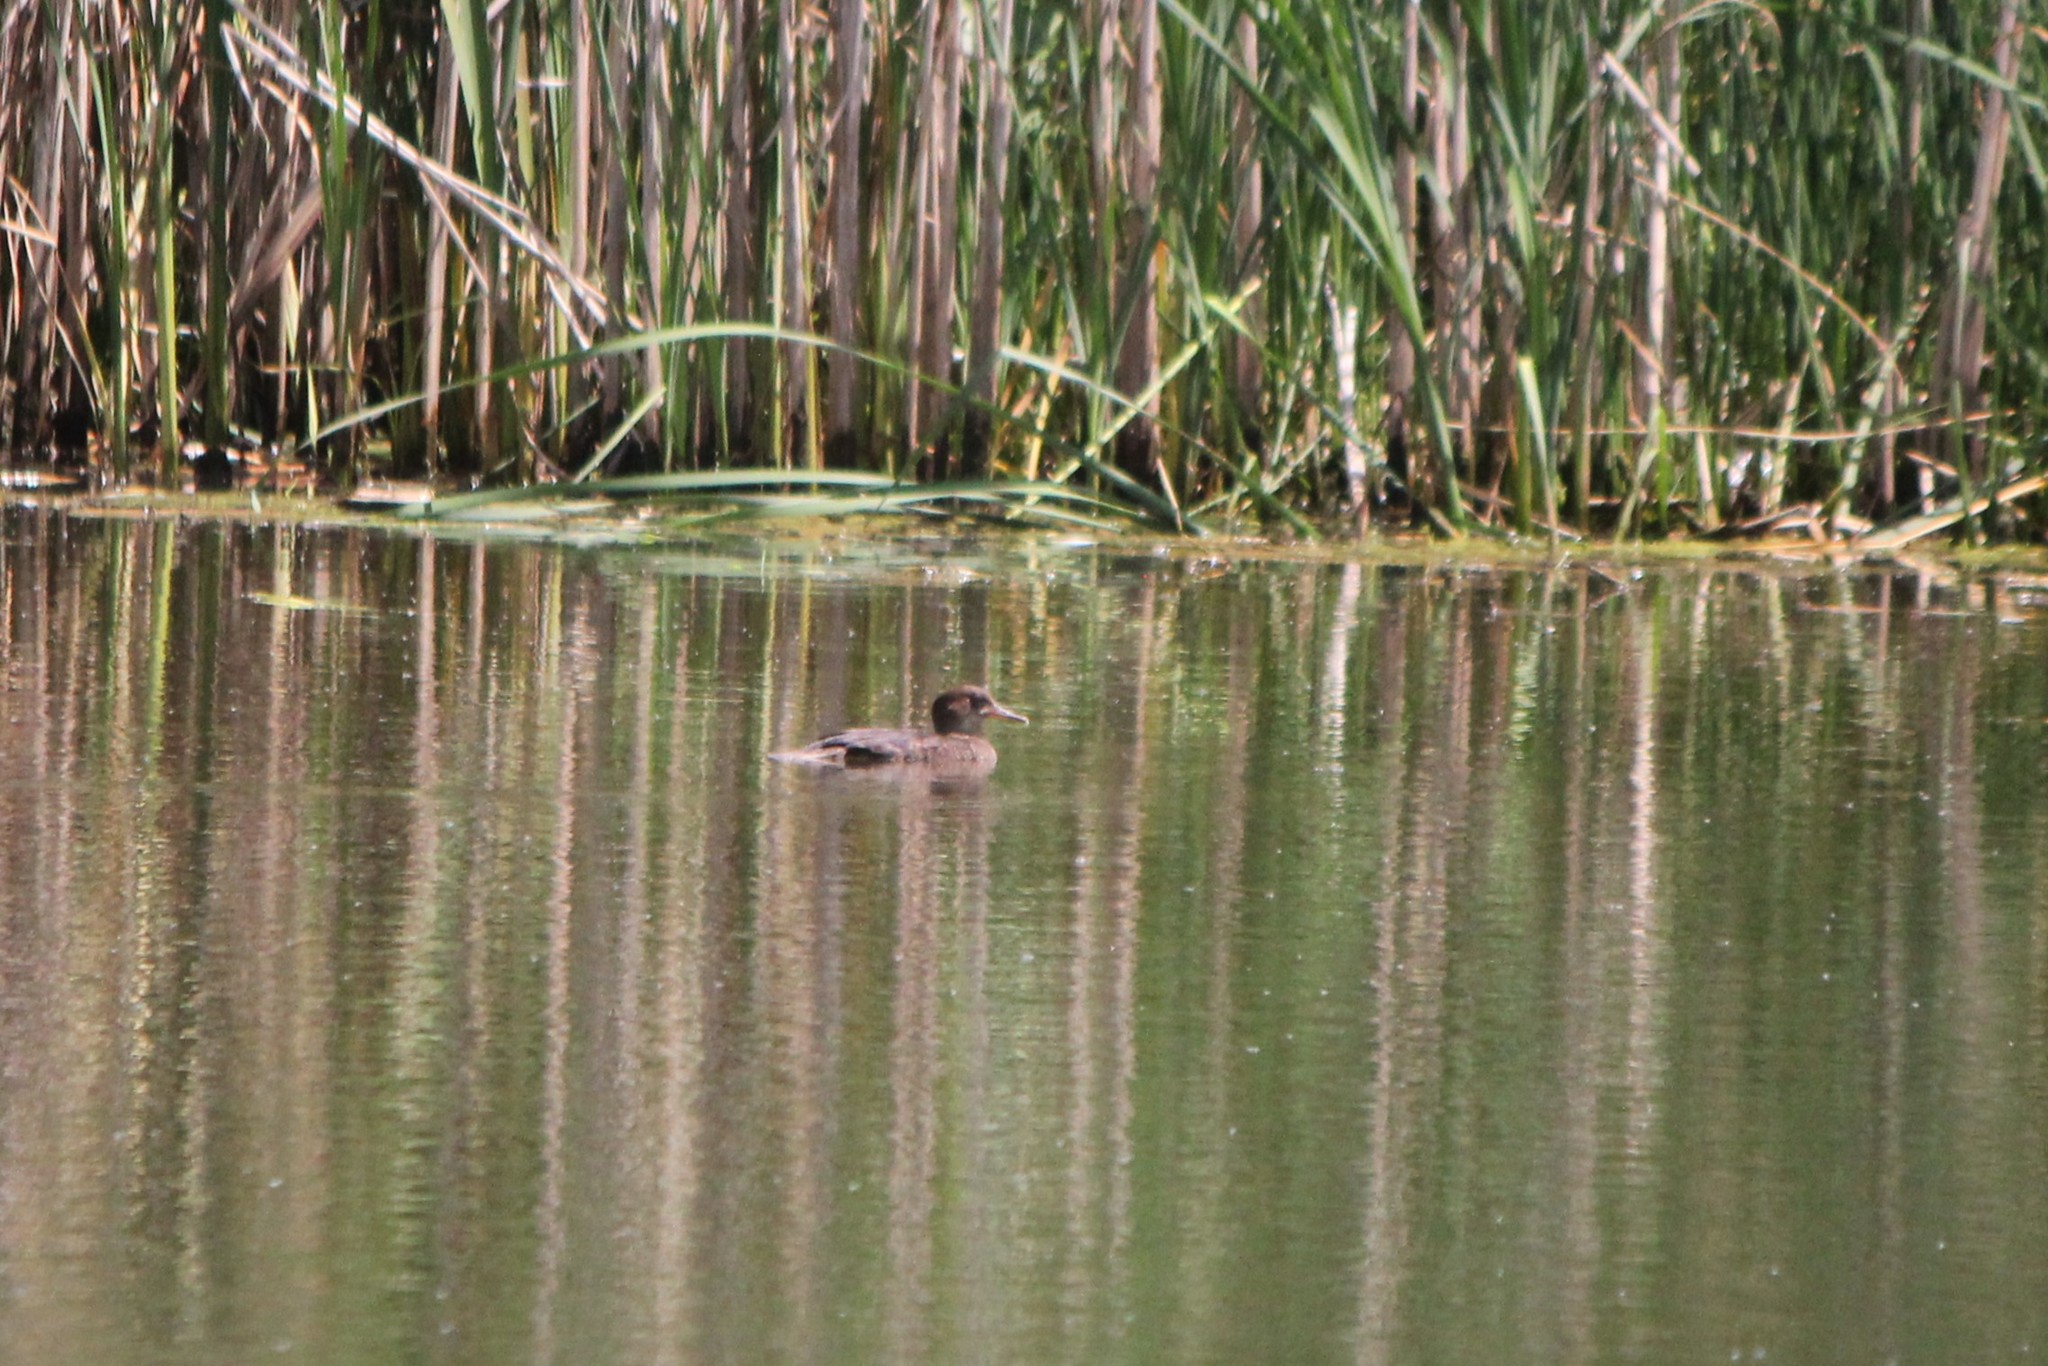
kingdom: Animalia
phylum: Chordata
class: Aves
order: Anseriformes
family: Anatidae
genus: Lophodytes
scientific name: Lophodytes cucullatus
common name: Hooded merganser
